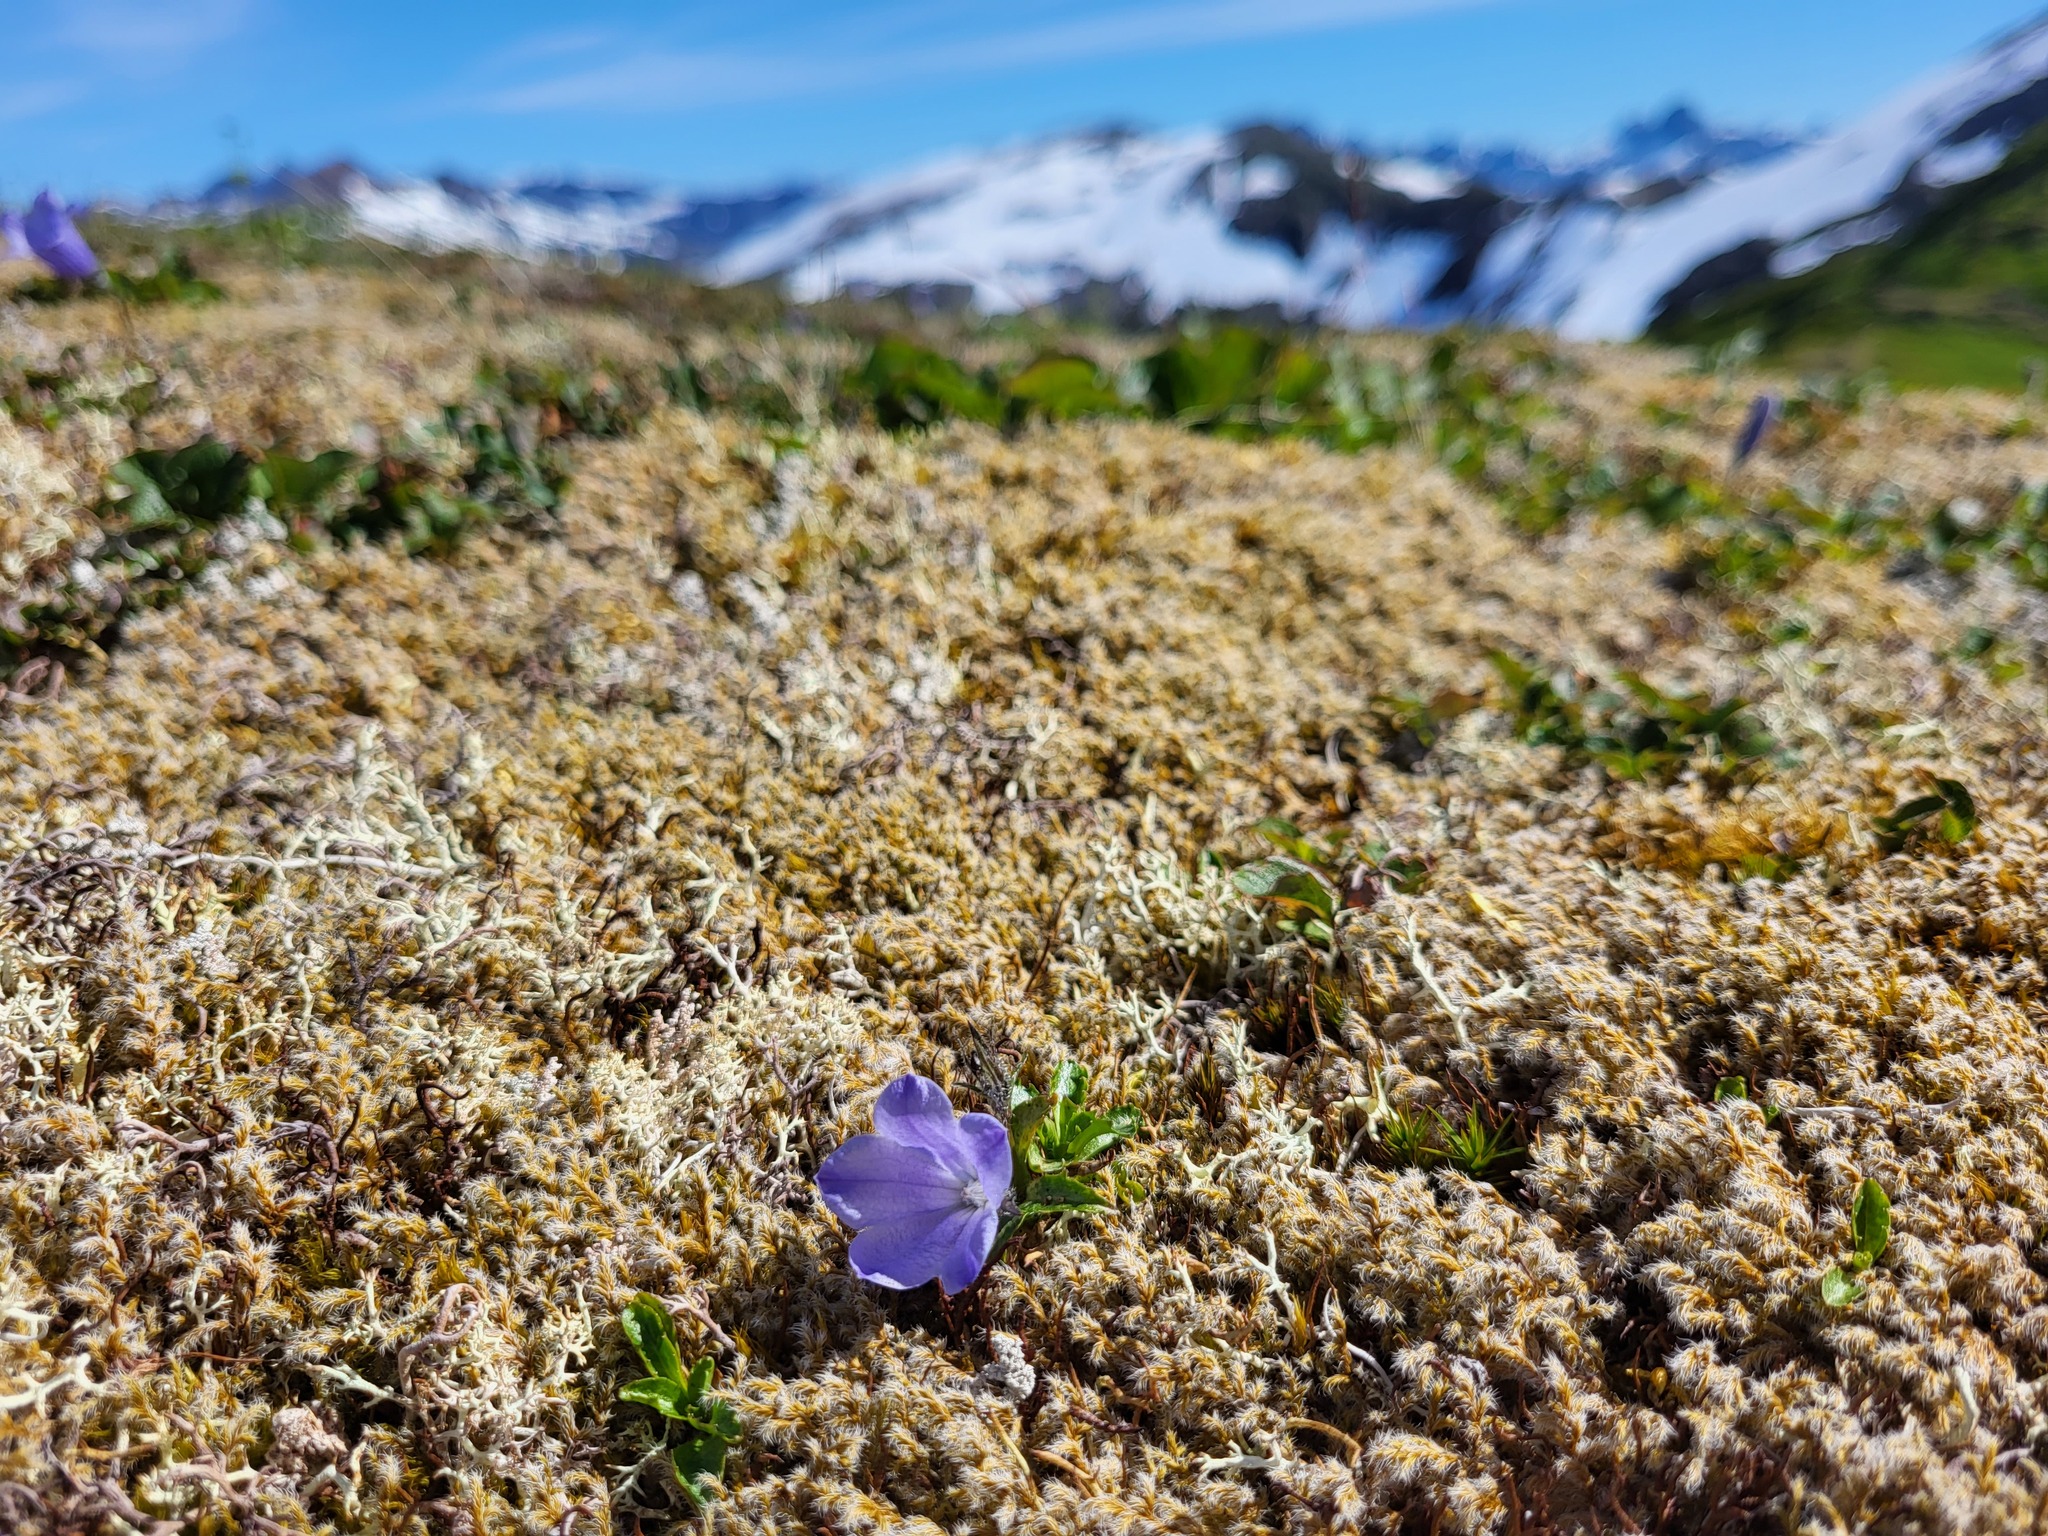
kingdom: Plantae
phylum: Tracheophyta
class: Magnoliopsida
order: Asterales
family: Campanulaceae
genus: Campanula
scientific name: Campanula lasiocarpa
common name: Mountain harebell
